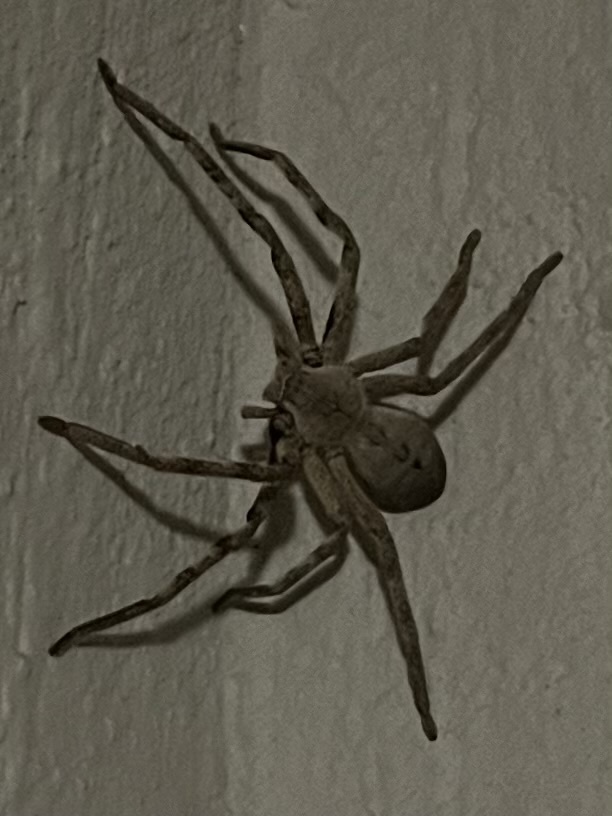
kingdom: Animalia
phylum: Arthropoda
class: Arachnida
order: Araneae
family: Sparassidae
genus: Palystes
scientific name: Palystes superciliosus
